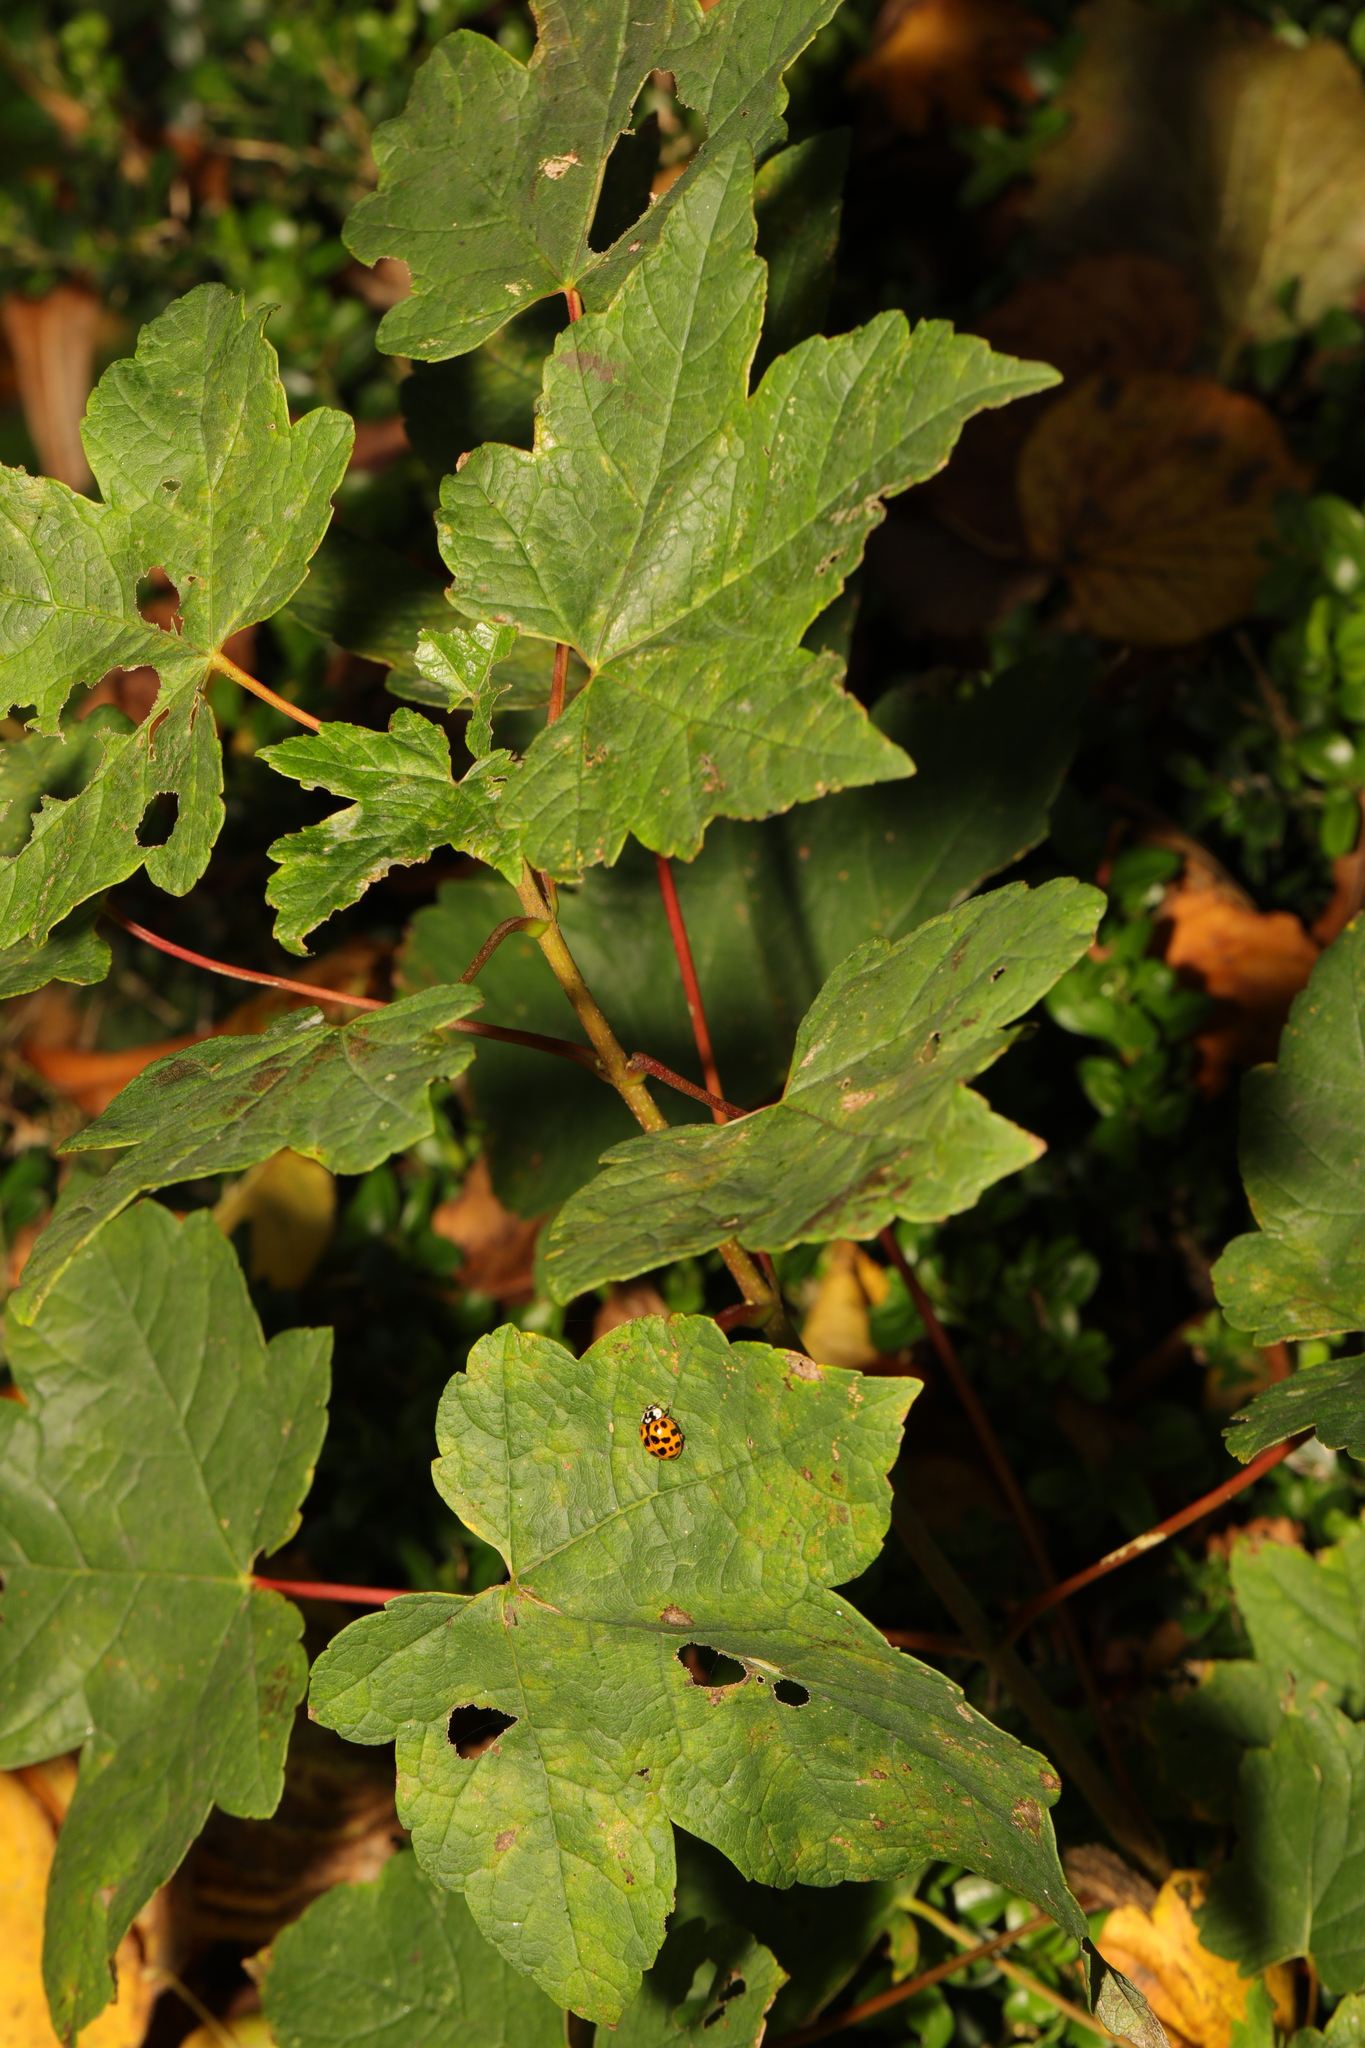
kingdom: Plantae
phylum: Tracheophyta
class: Magnoliopsida
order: Sapindales
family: Sapindaceae
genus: Acer
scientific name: Acer pseudoplatanus
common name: Sycamore
